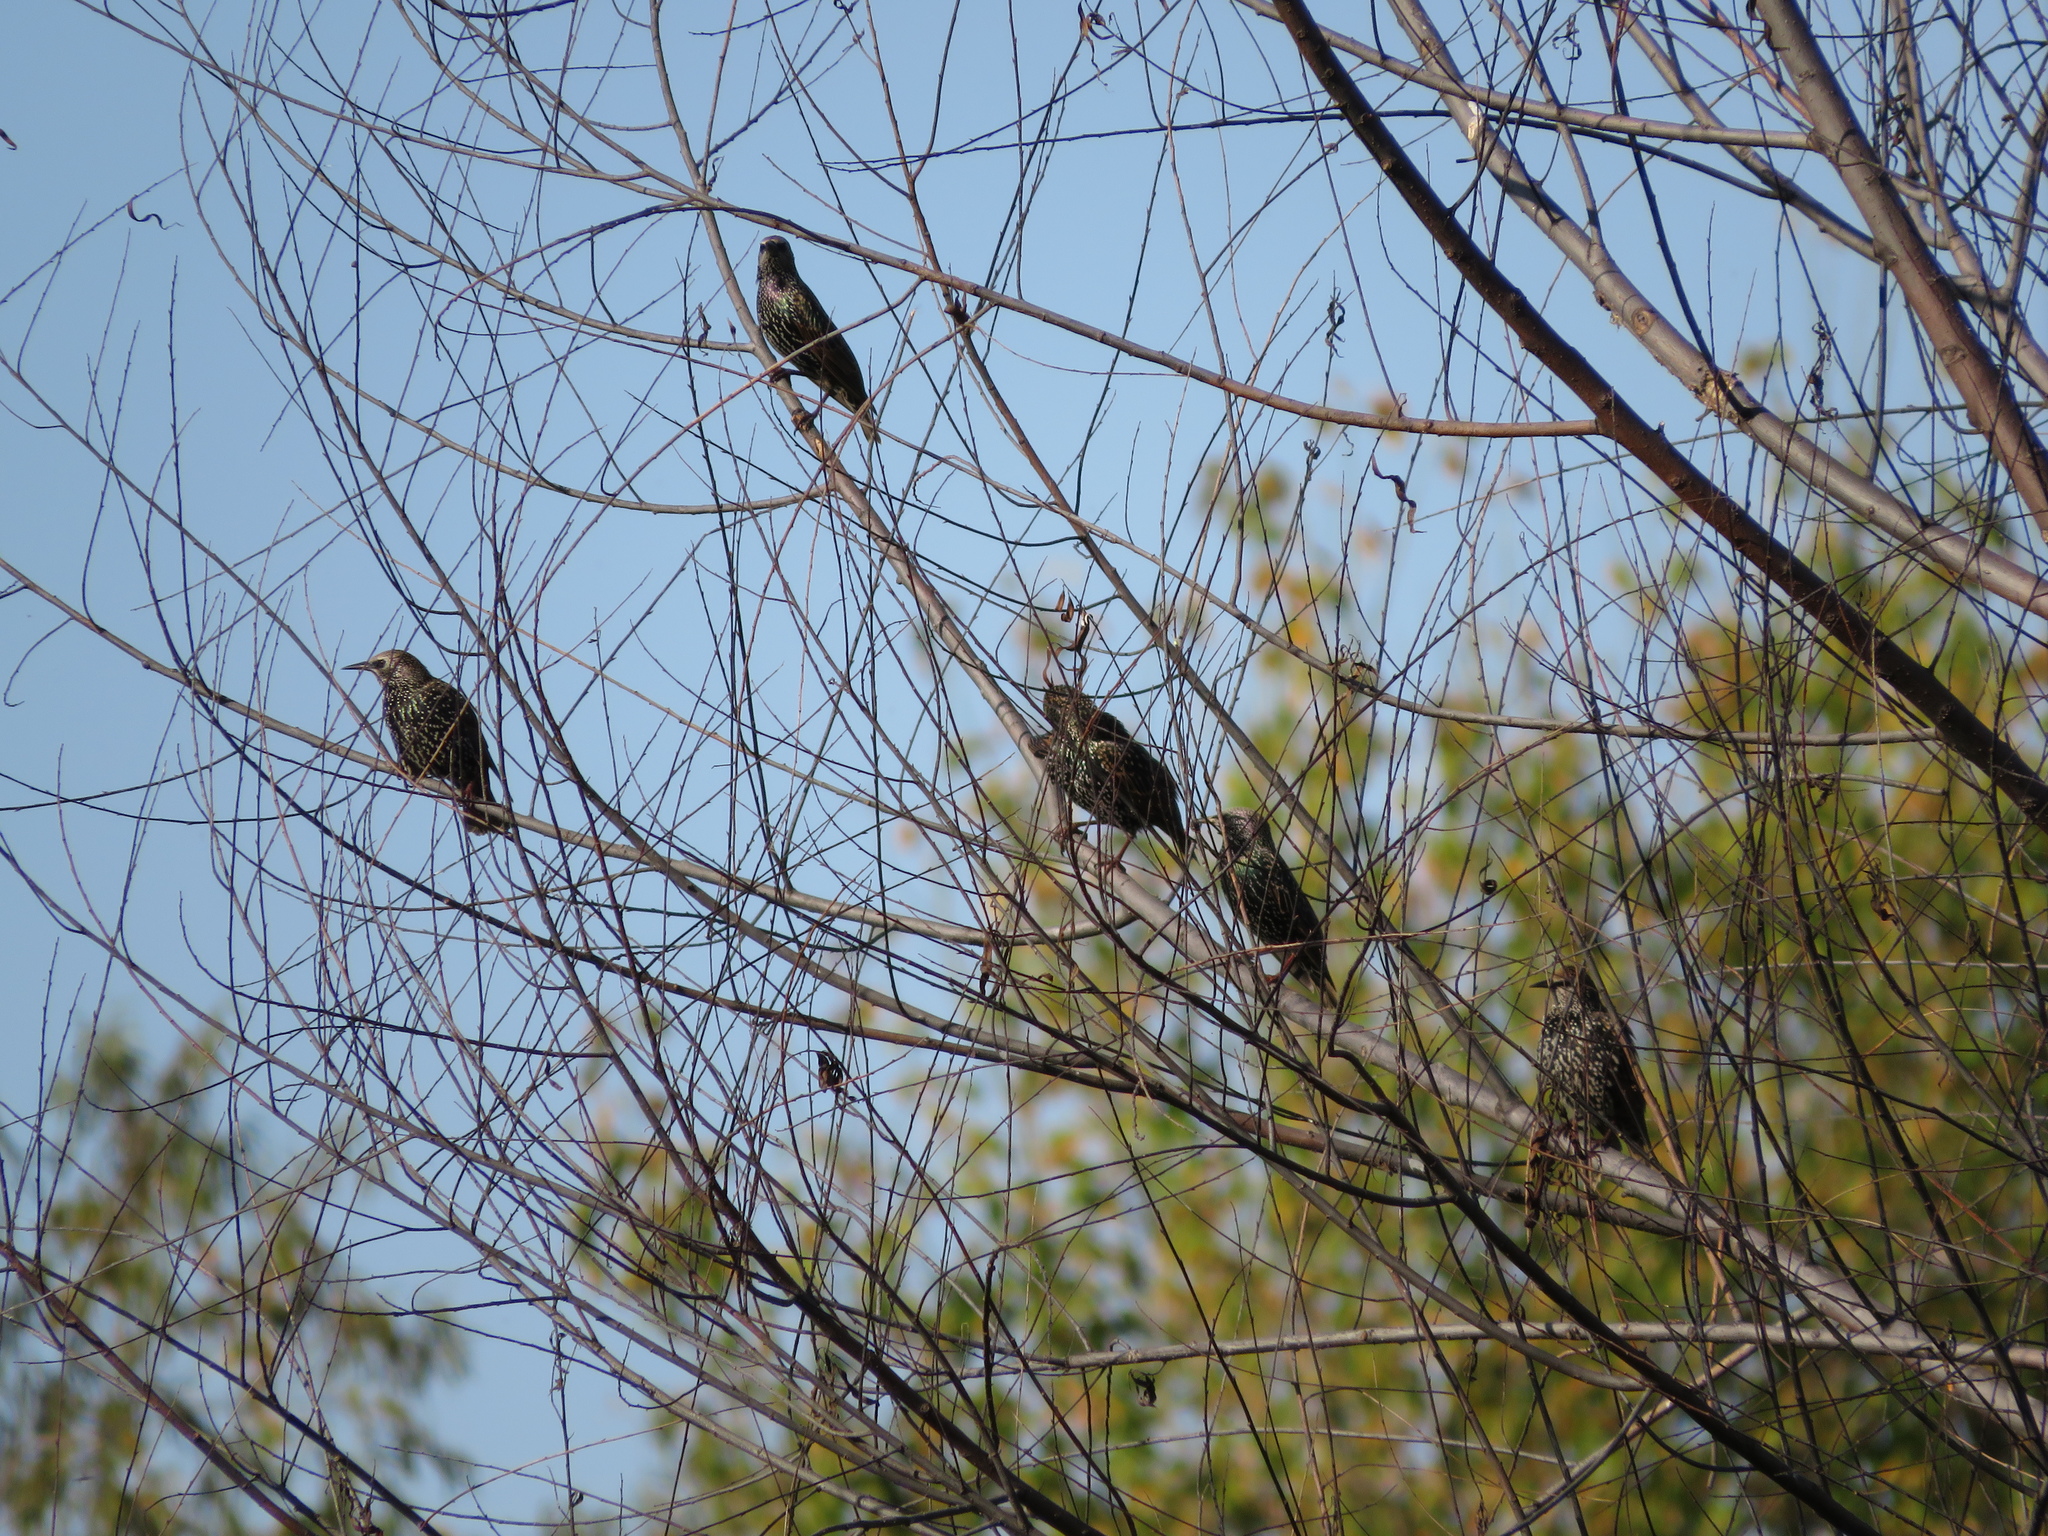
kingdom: Animalia
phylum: Chordata
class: Aves
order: Passeriformes
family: Sturnidae
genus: Sturnus
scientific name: Sturnus vulgaris
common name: Common starling
